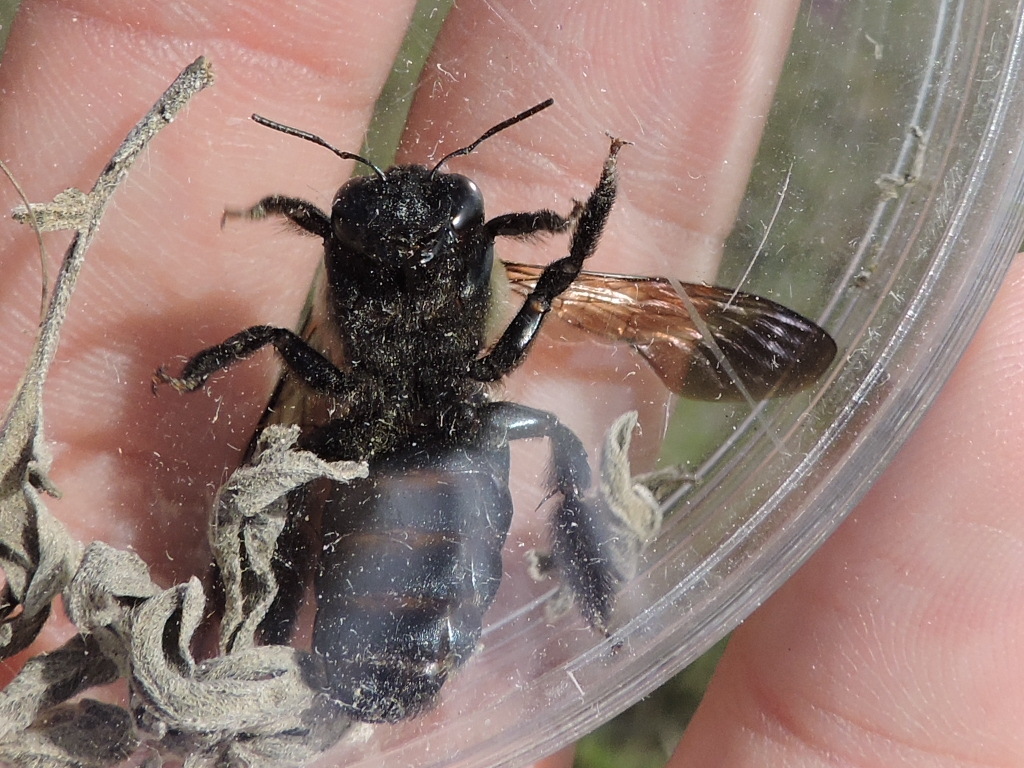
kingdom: Animalia
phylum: Arthropoda
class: Insecta
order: Hymenoptera
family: Apidae
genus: Xylocopa
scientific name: Xylocopa virginica
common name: Carpenter bee
